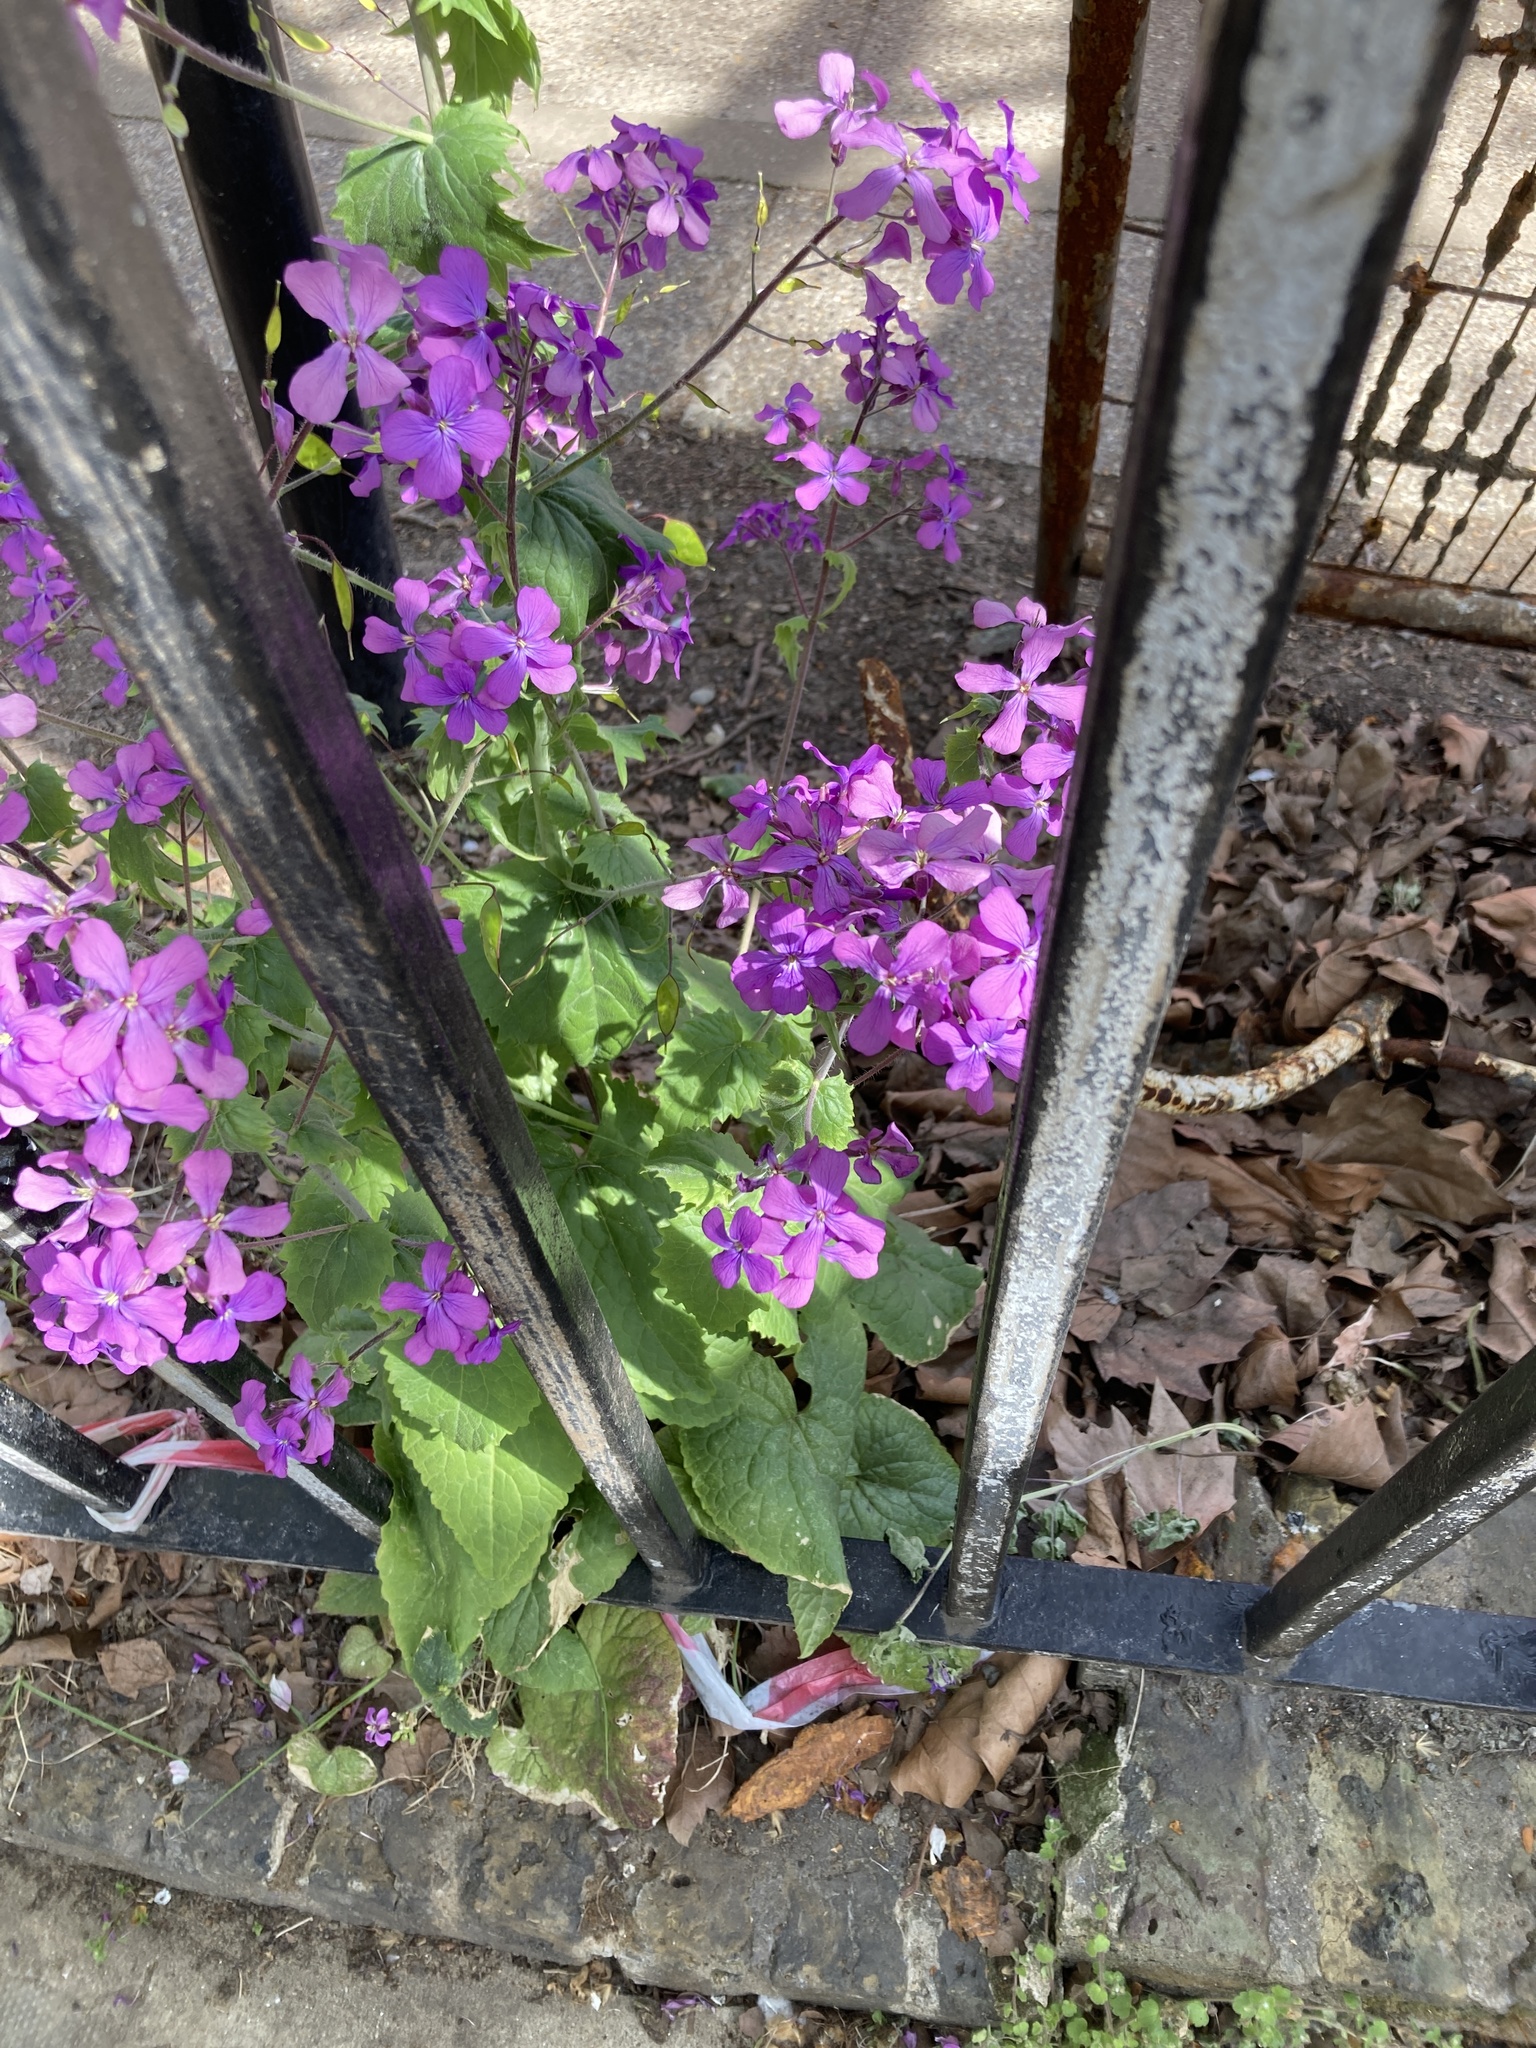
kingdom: Plantae
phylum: Tracheophyta
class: Magnoliopsida
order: Brassicales
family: Brassicaceae
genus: Lunaria
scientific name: Lunaria annua
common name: Honesty
